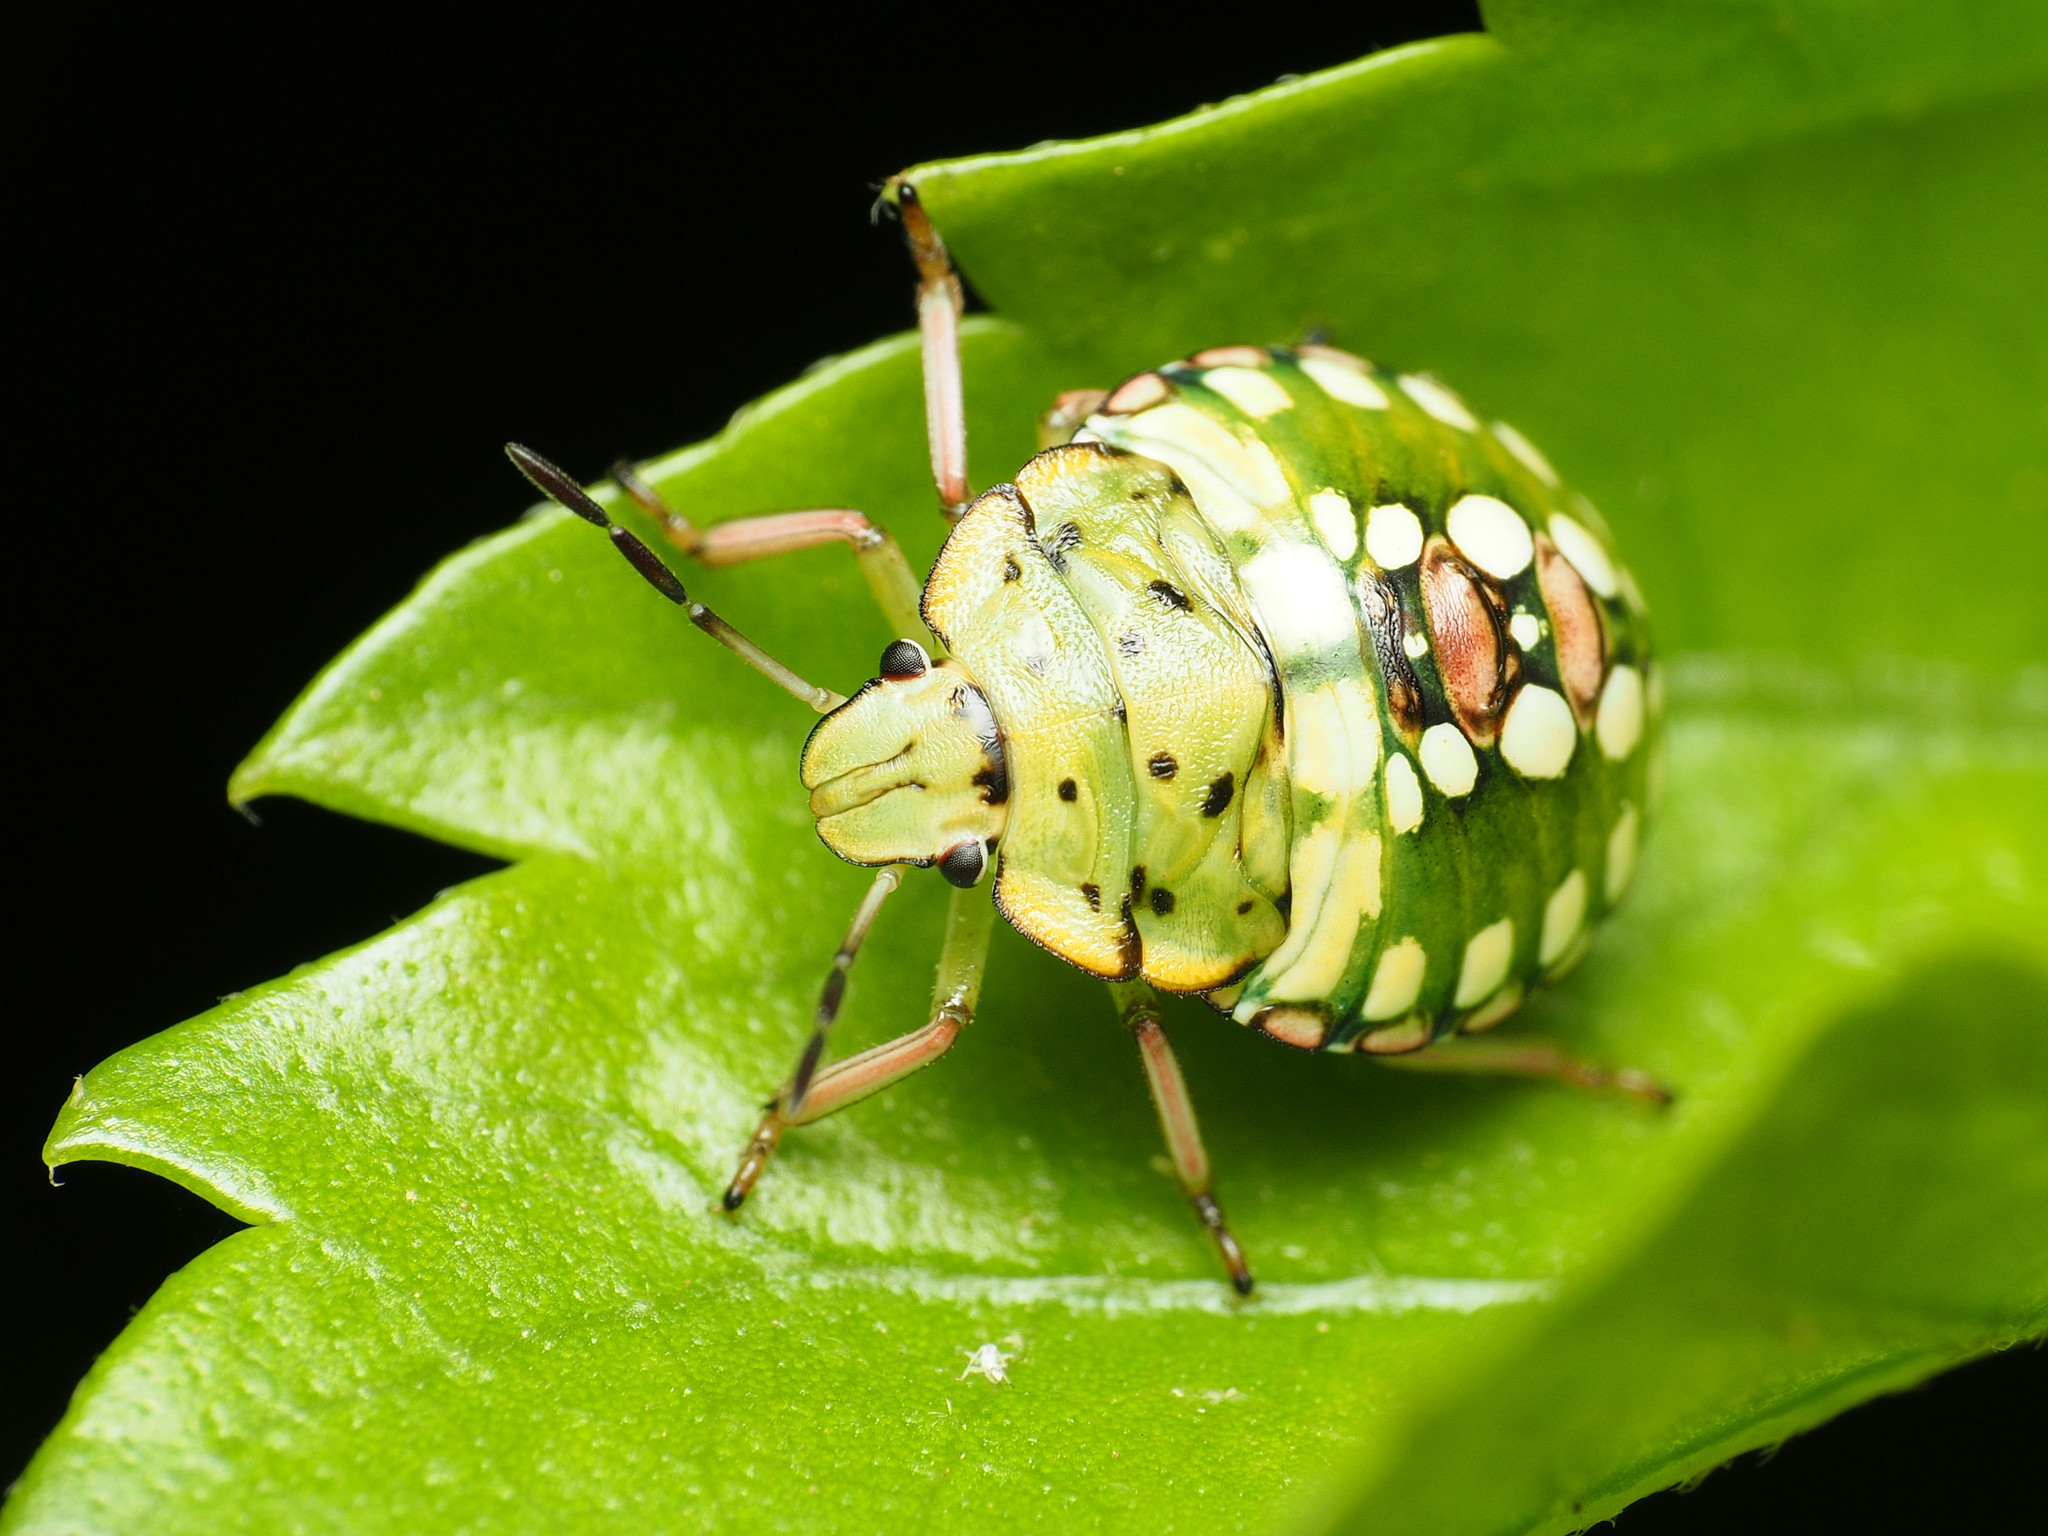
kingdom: Animalia
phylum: Arthropoda
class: Insecta
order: Hemiptera
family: Pentatomidae
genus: Nezara
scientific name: Nezara viridula
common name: Southern green stink bug
